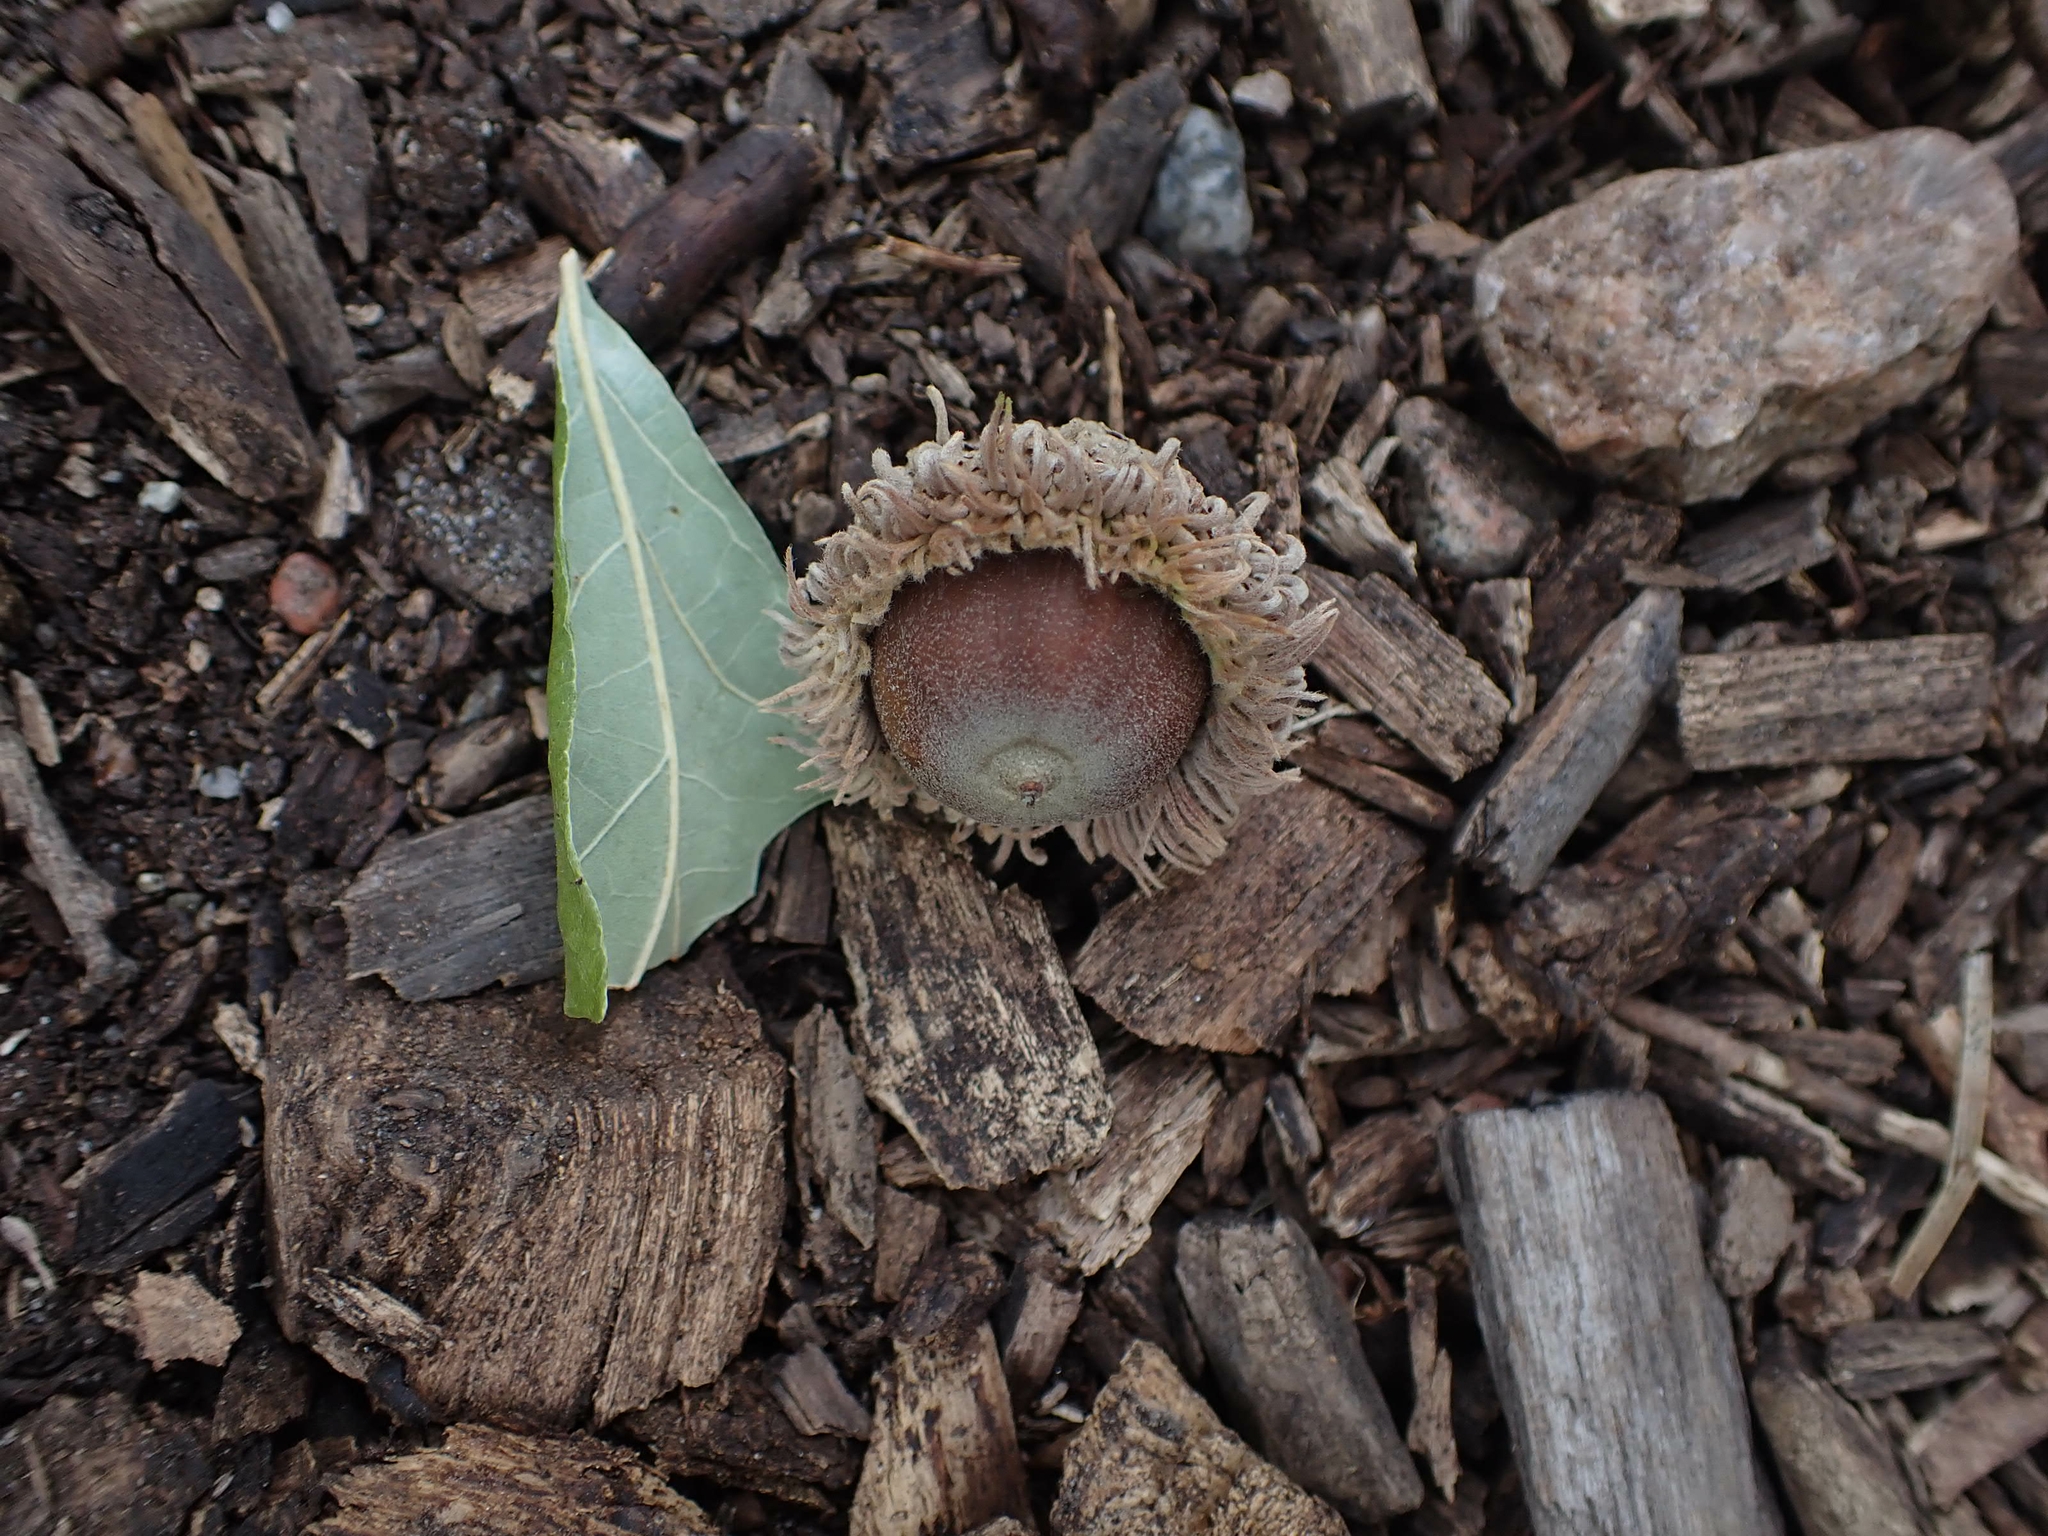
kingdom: Plantae
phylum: Tracheophyta
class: Magnoliopsida
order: Fagales
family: Fagaceae
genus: Quercus
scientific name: Quercus macrocarpa
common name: Bur oak
